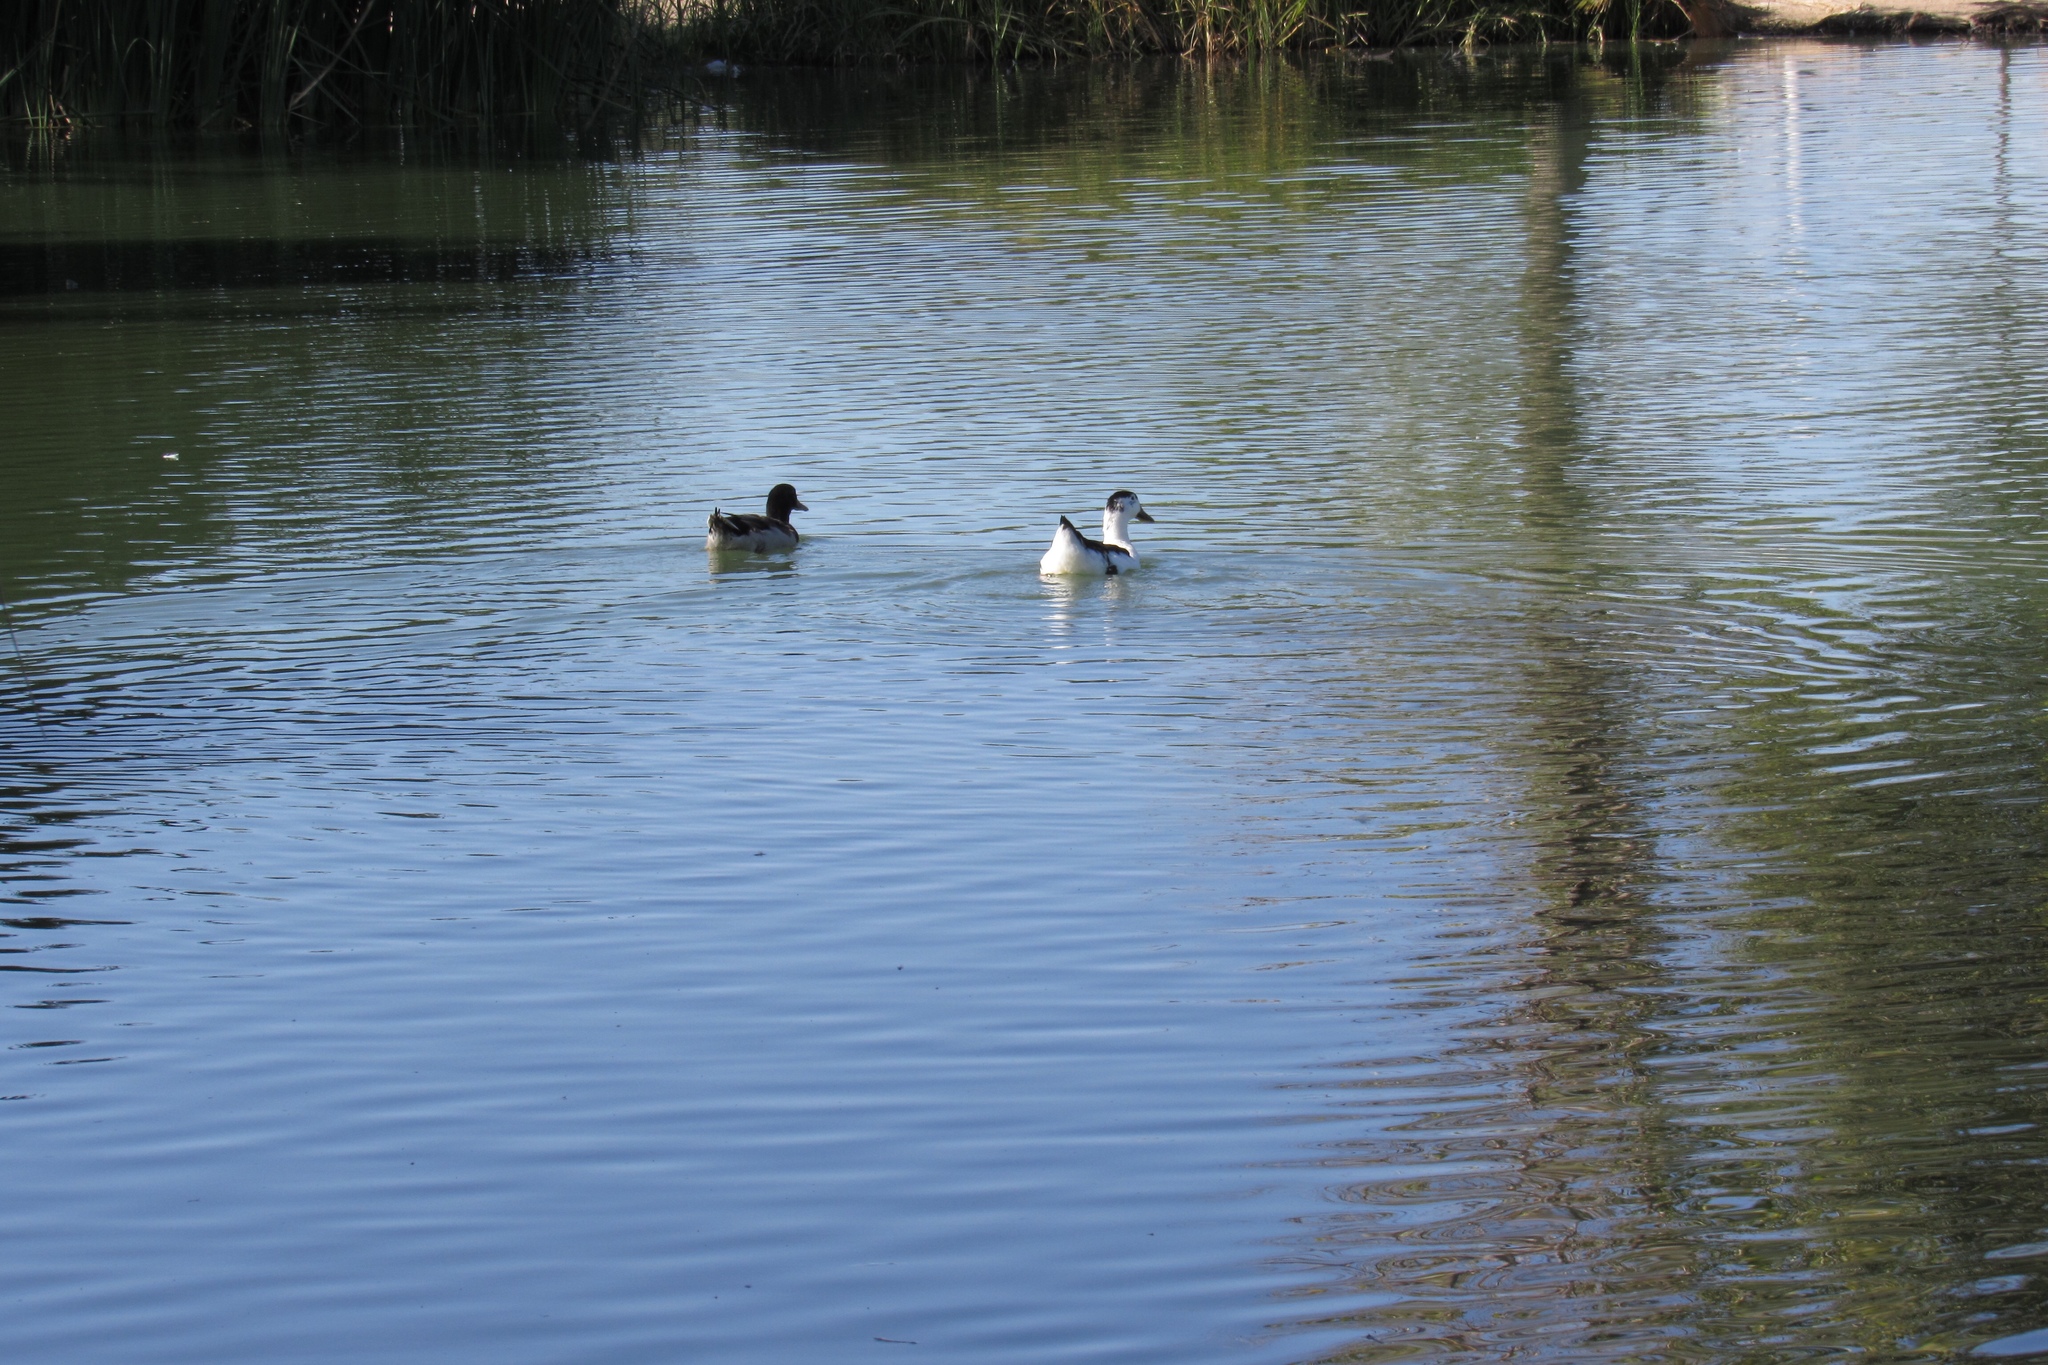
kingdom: Animalia
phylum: Chordata
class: Aves
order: Anseriformes
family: Anatidae
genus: Anas
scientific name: Anas platyrhynchos
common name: Mallard
